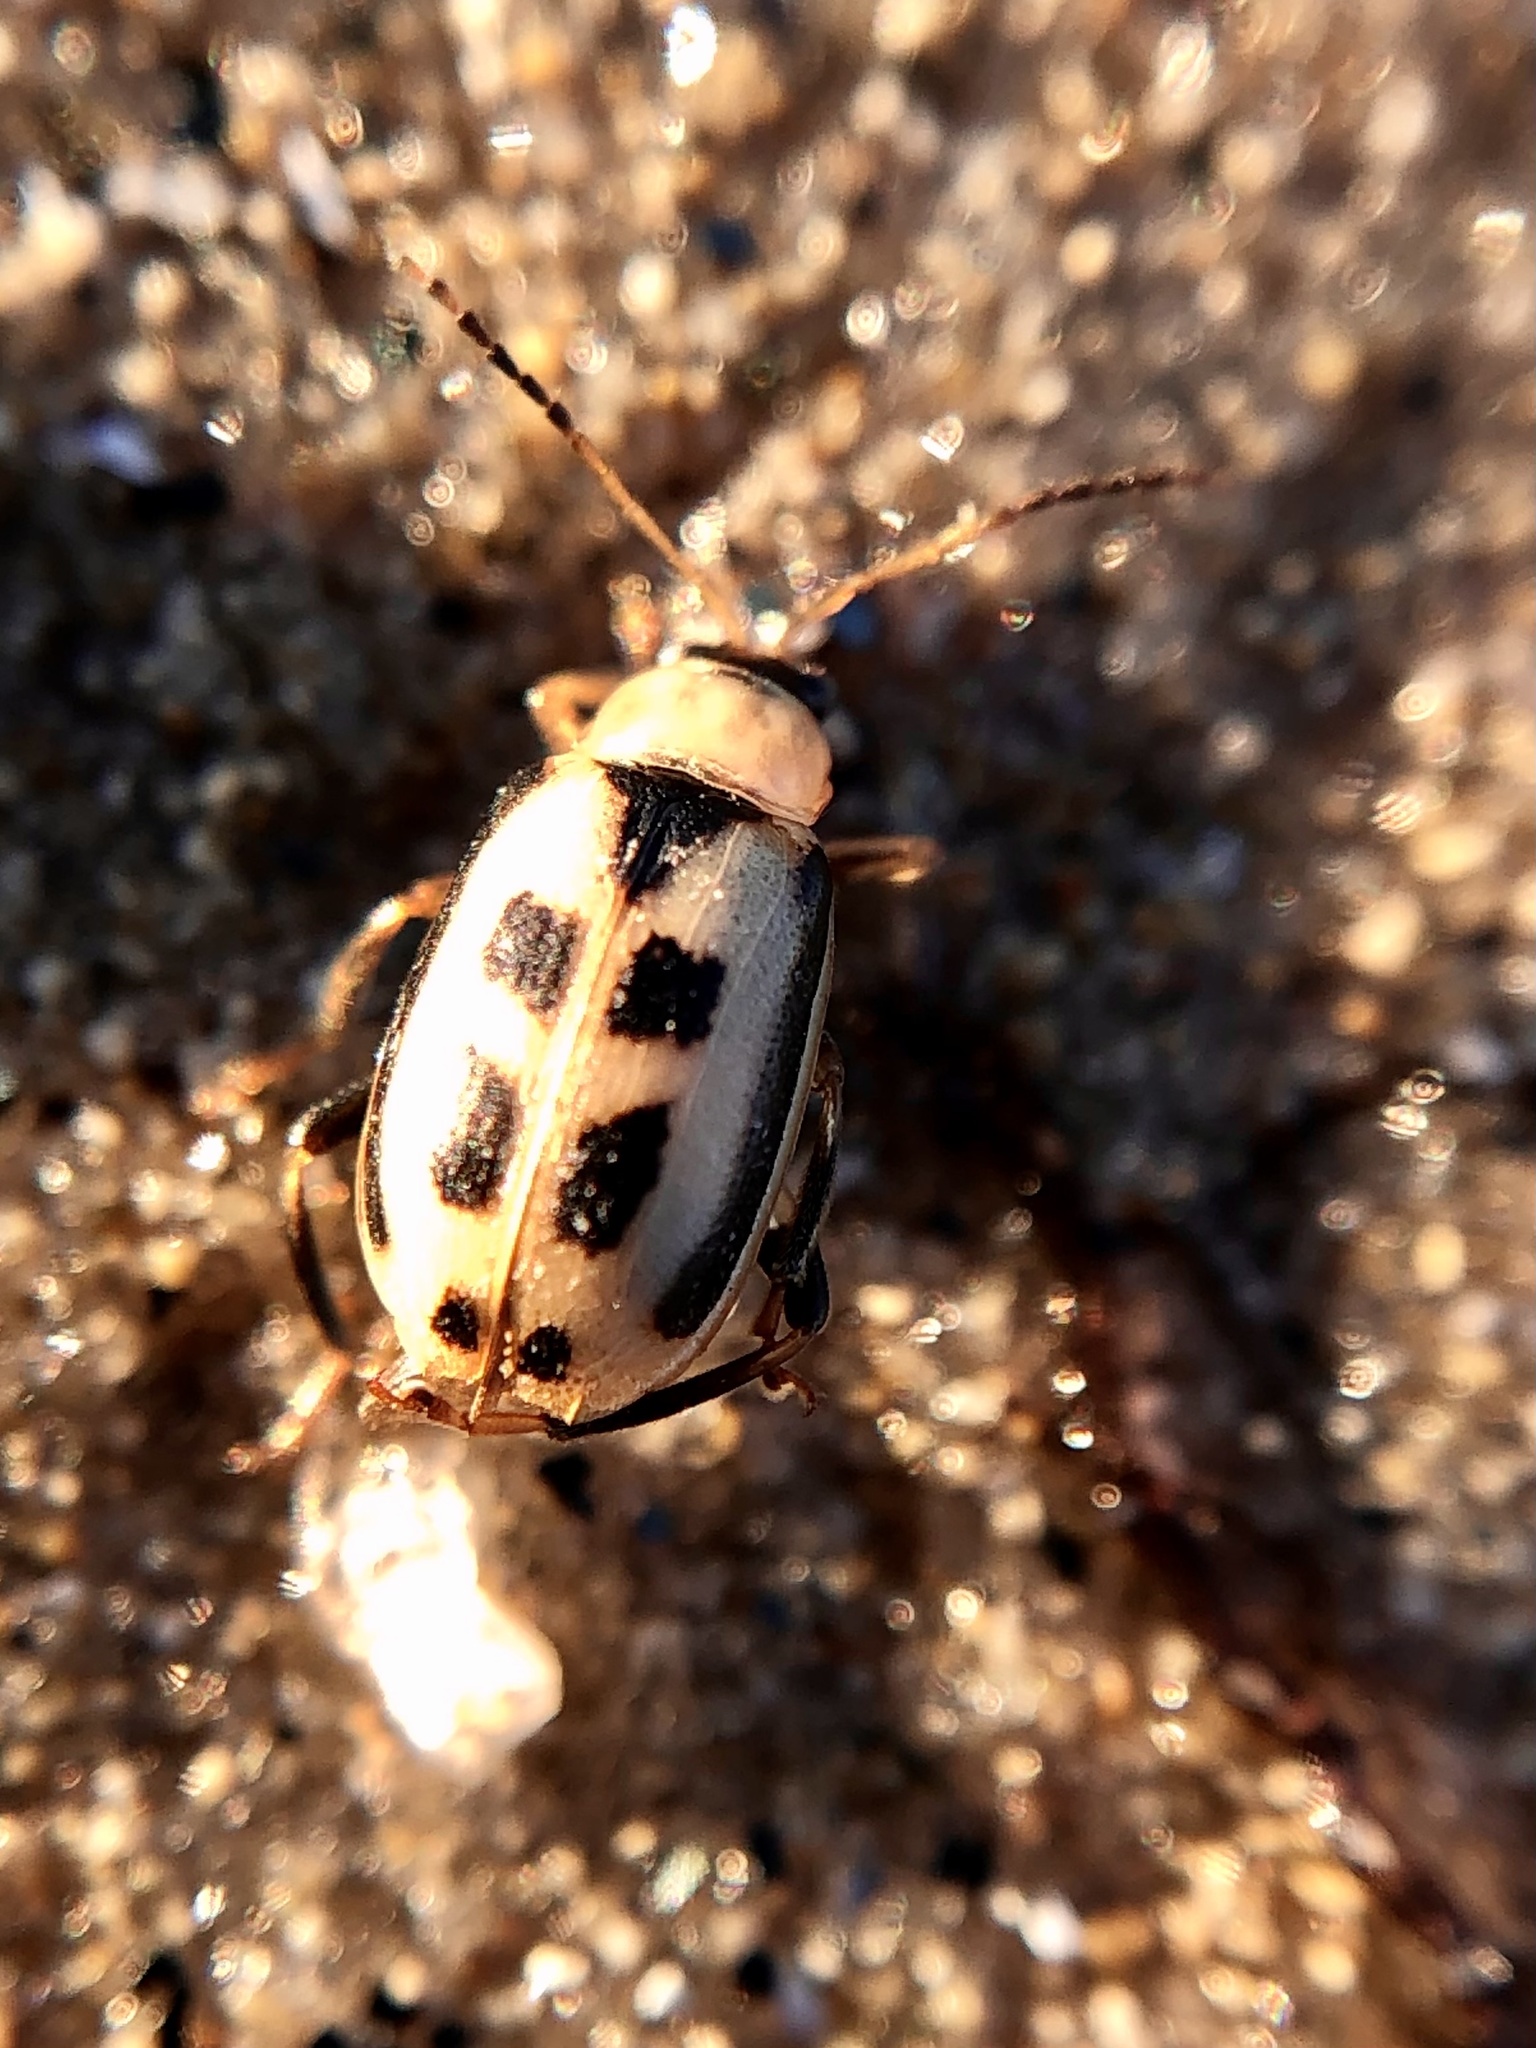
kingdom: Animalia
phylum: Arthropoda
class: Insecta
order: Coleoptera
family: Chrysomelidae
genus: Cerotoma
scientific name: Cerotoma trifurcata
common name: Bean leaf beetle
